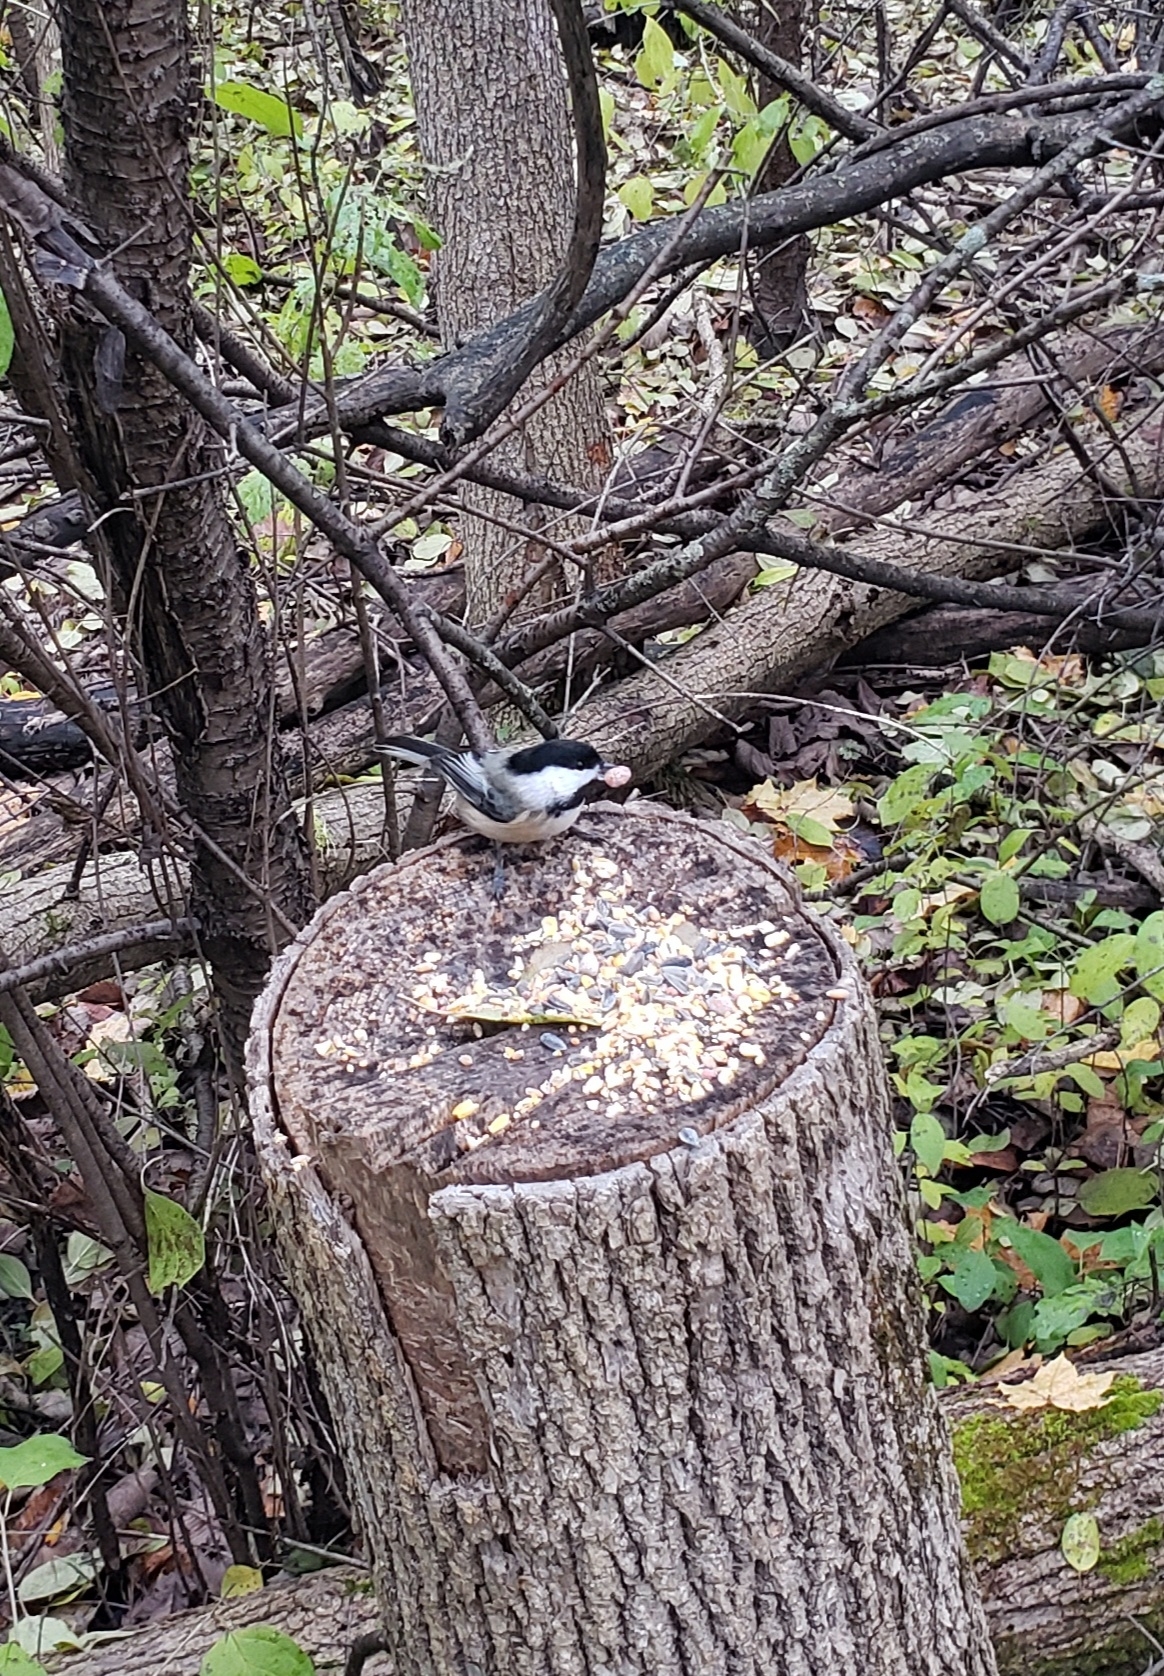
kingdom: Animalia
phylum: Chordata
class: Aves
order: Passeriformes
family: Paridae
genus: Poecile
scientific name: Poecile atricapillus
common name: Black-capped chickadee
